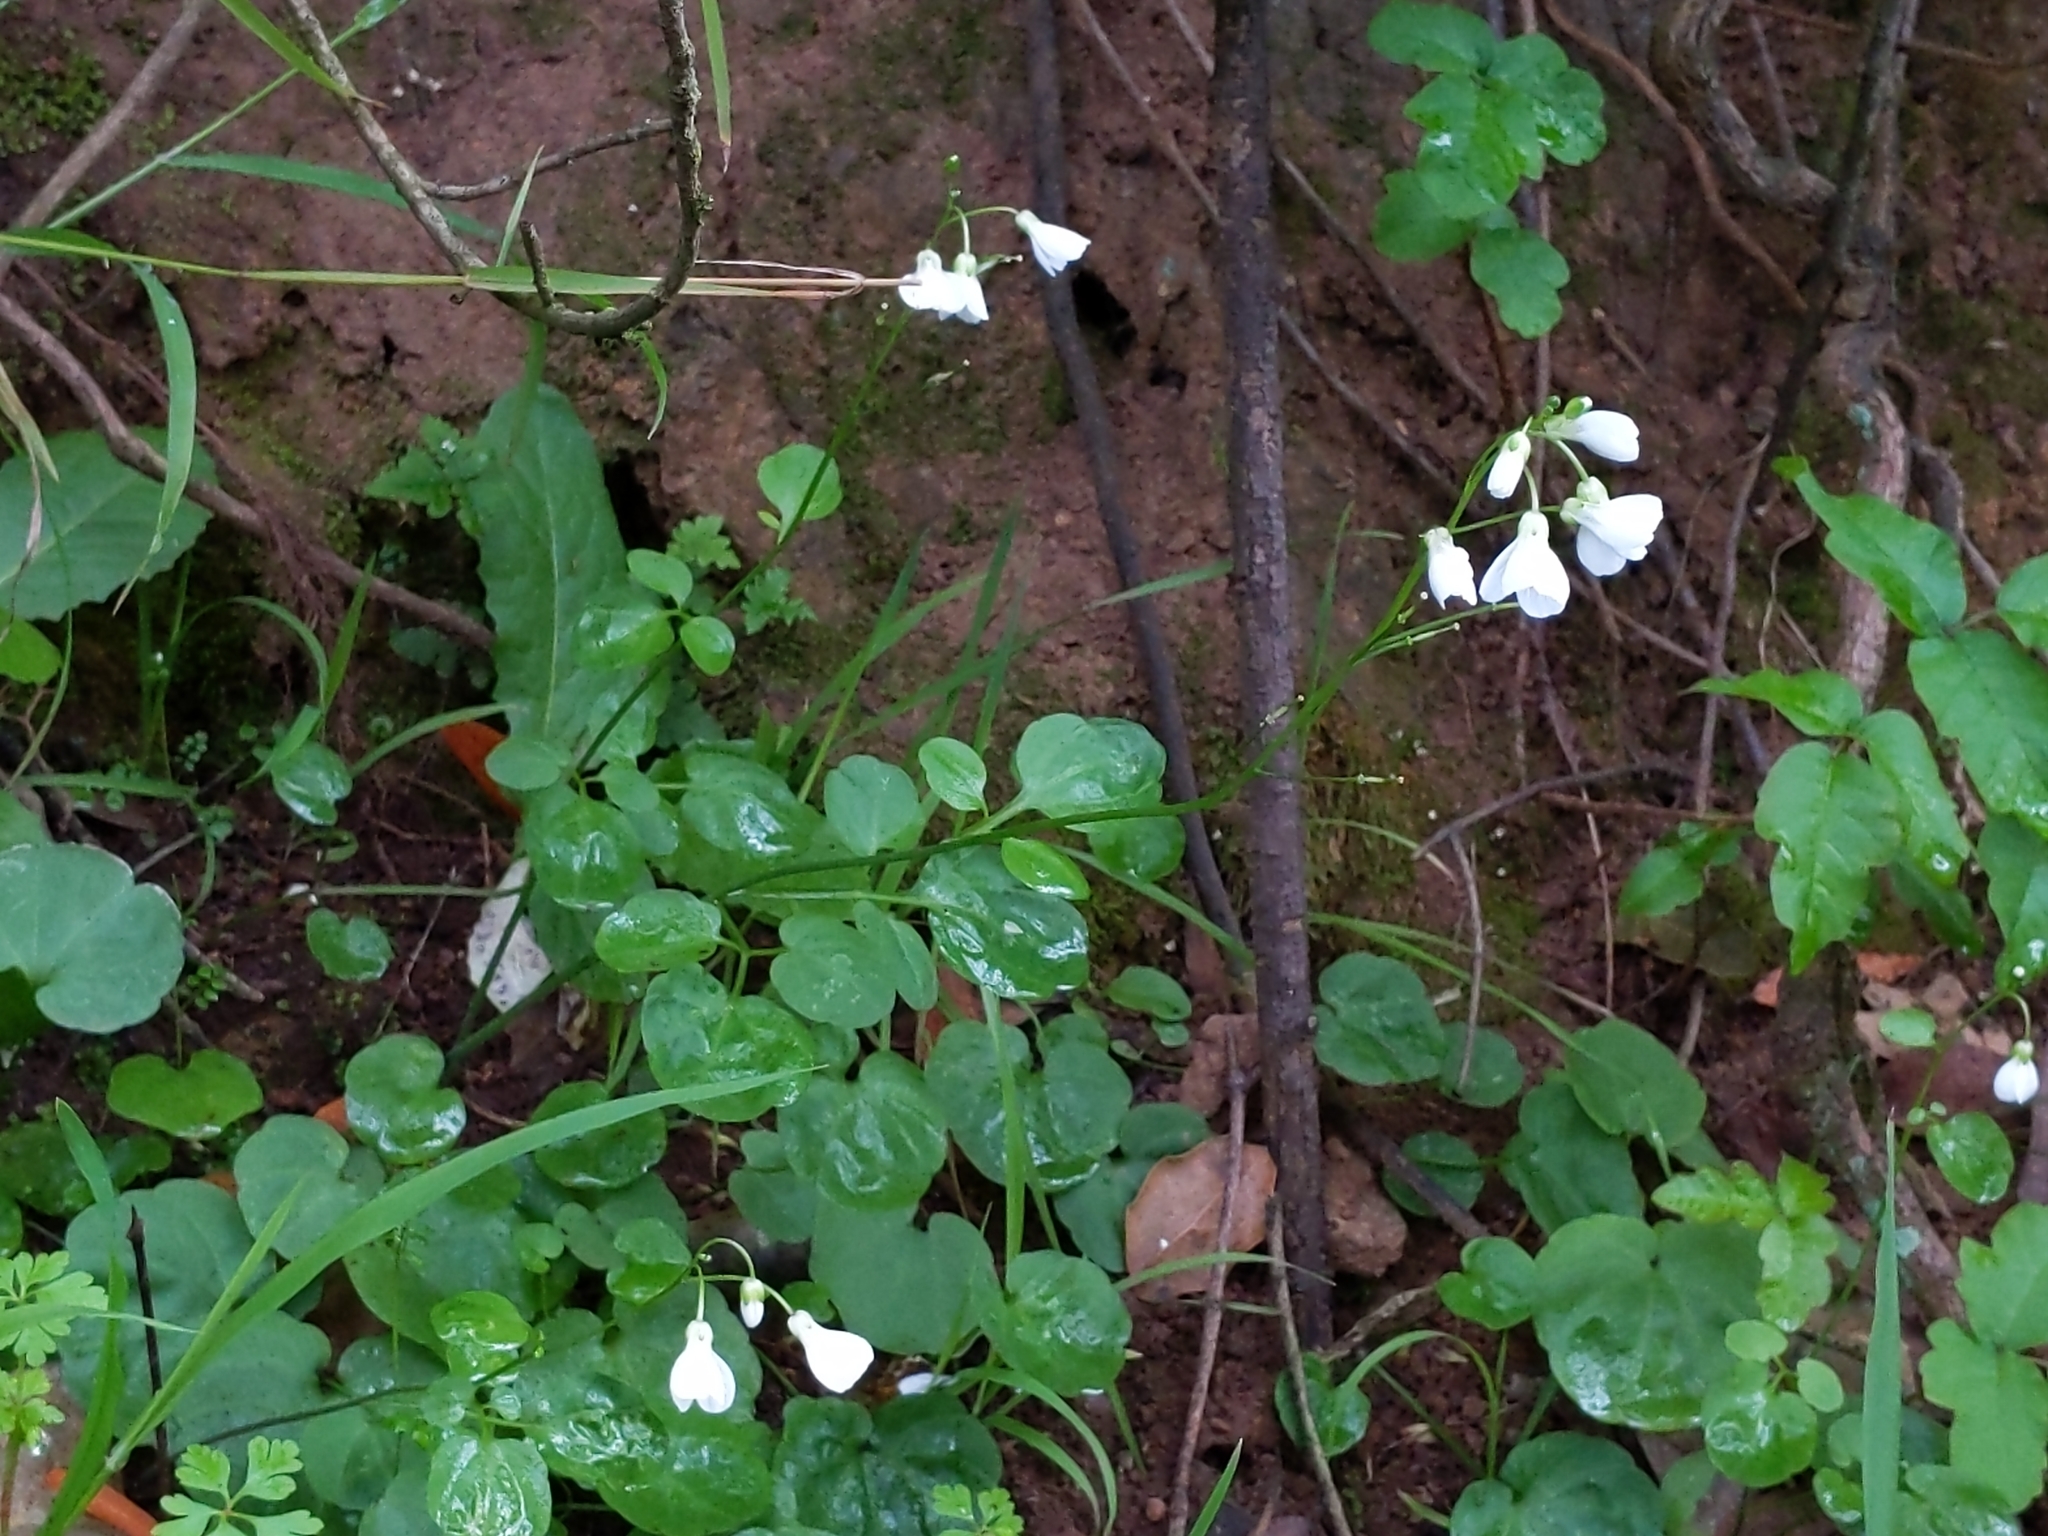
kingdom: Plantae
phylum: Tracheophyta
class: Magnoliopsida
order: Brassicales
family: Brassicaceae
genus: Cardamine
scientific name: Cardamine californica
